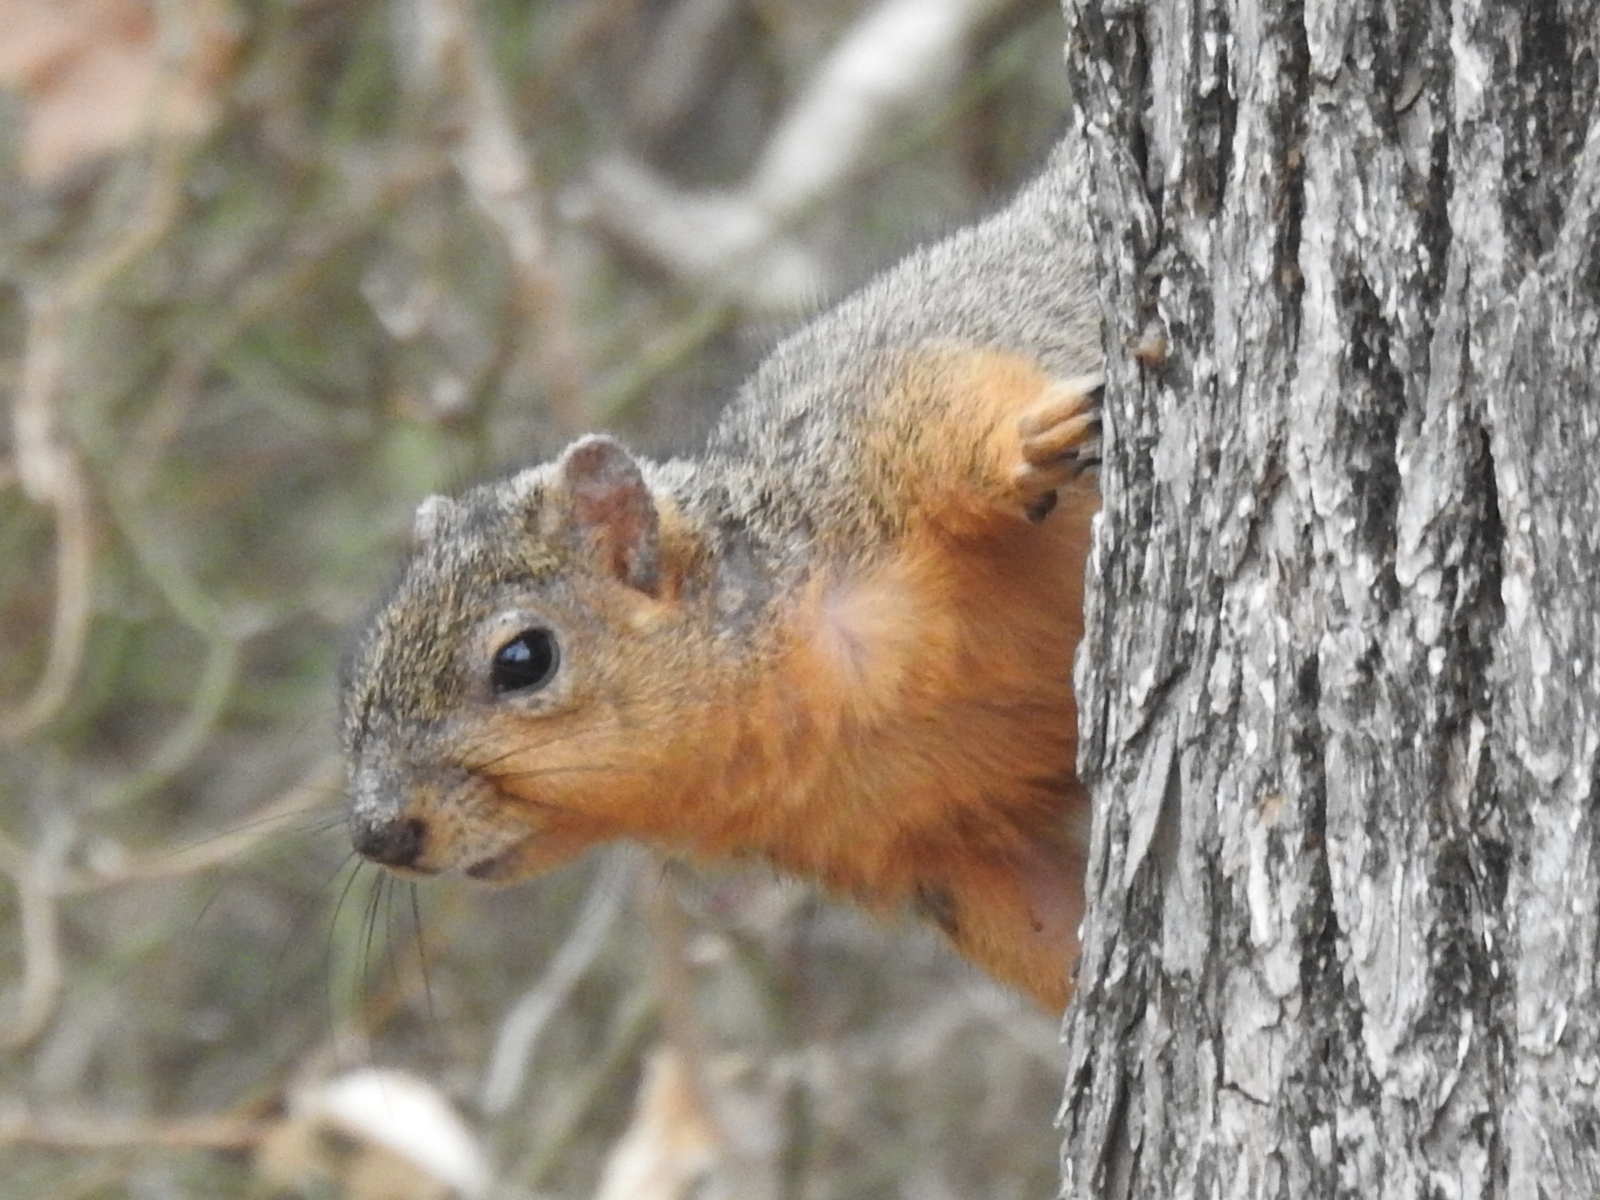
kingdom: Animalia
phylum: Chordata
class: Mammalia
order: Rodentia
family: Sciuridae
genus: Sciurus
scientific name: Sciurus niger
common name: Fox squirrel
